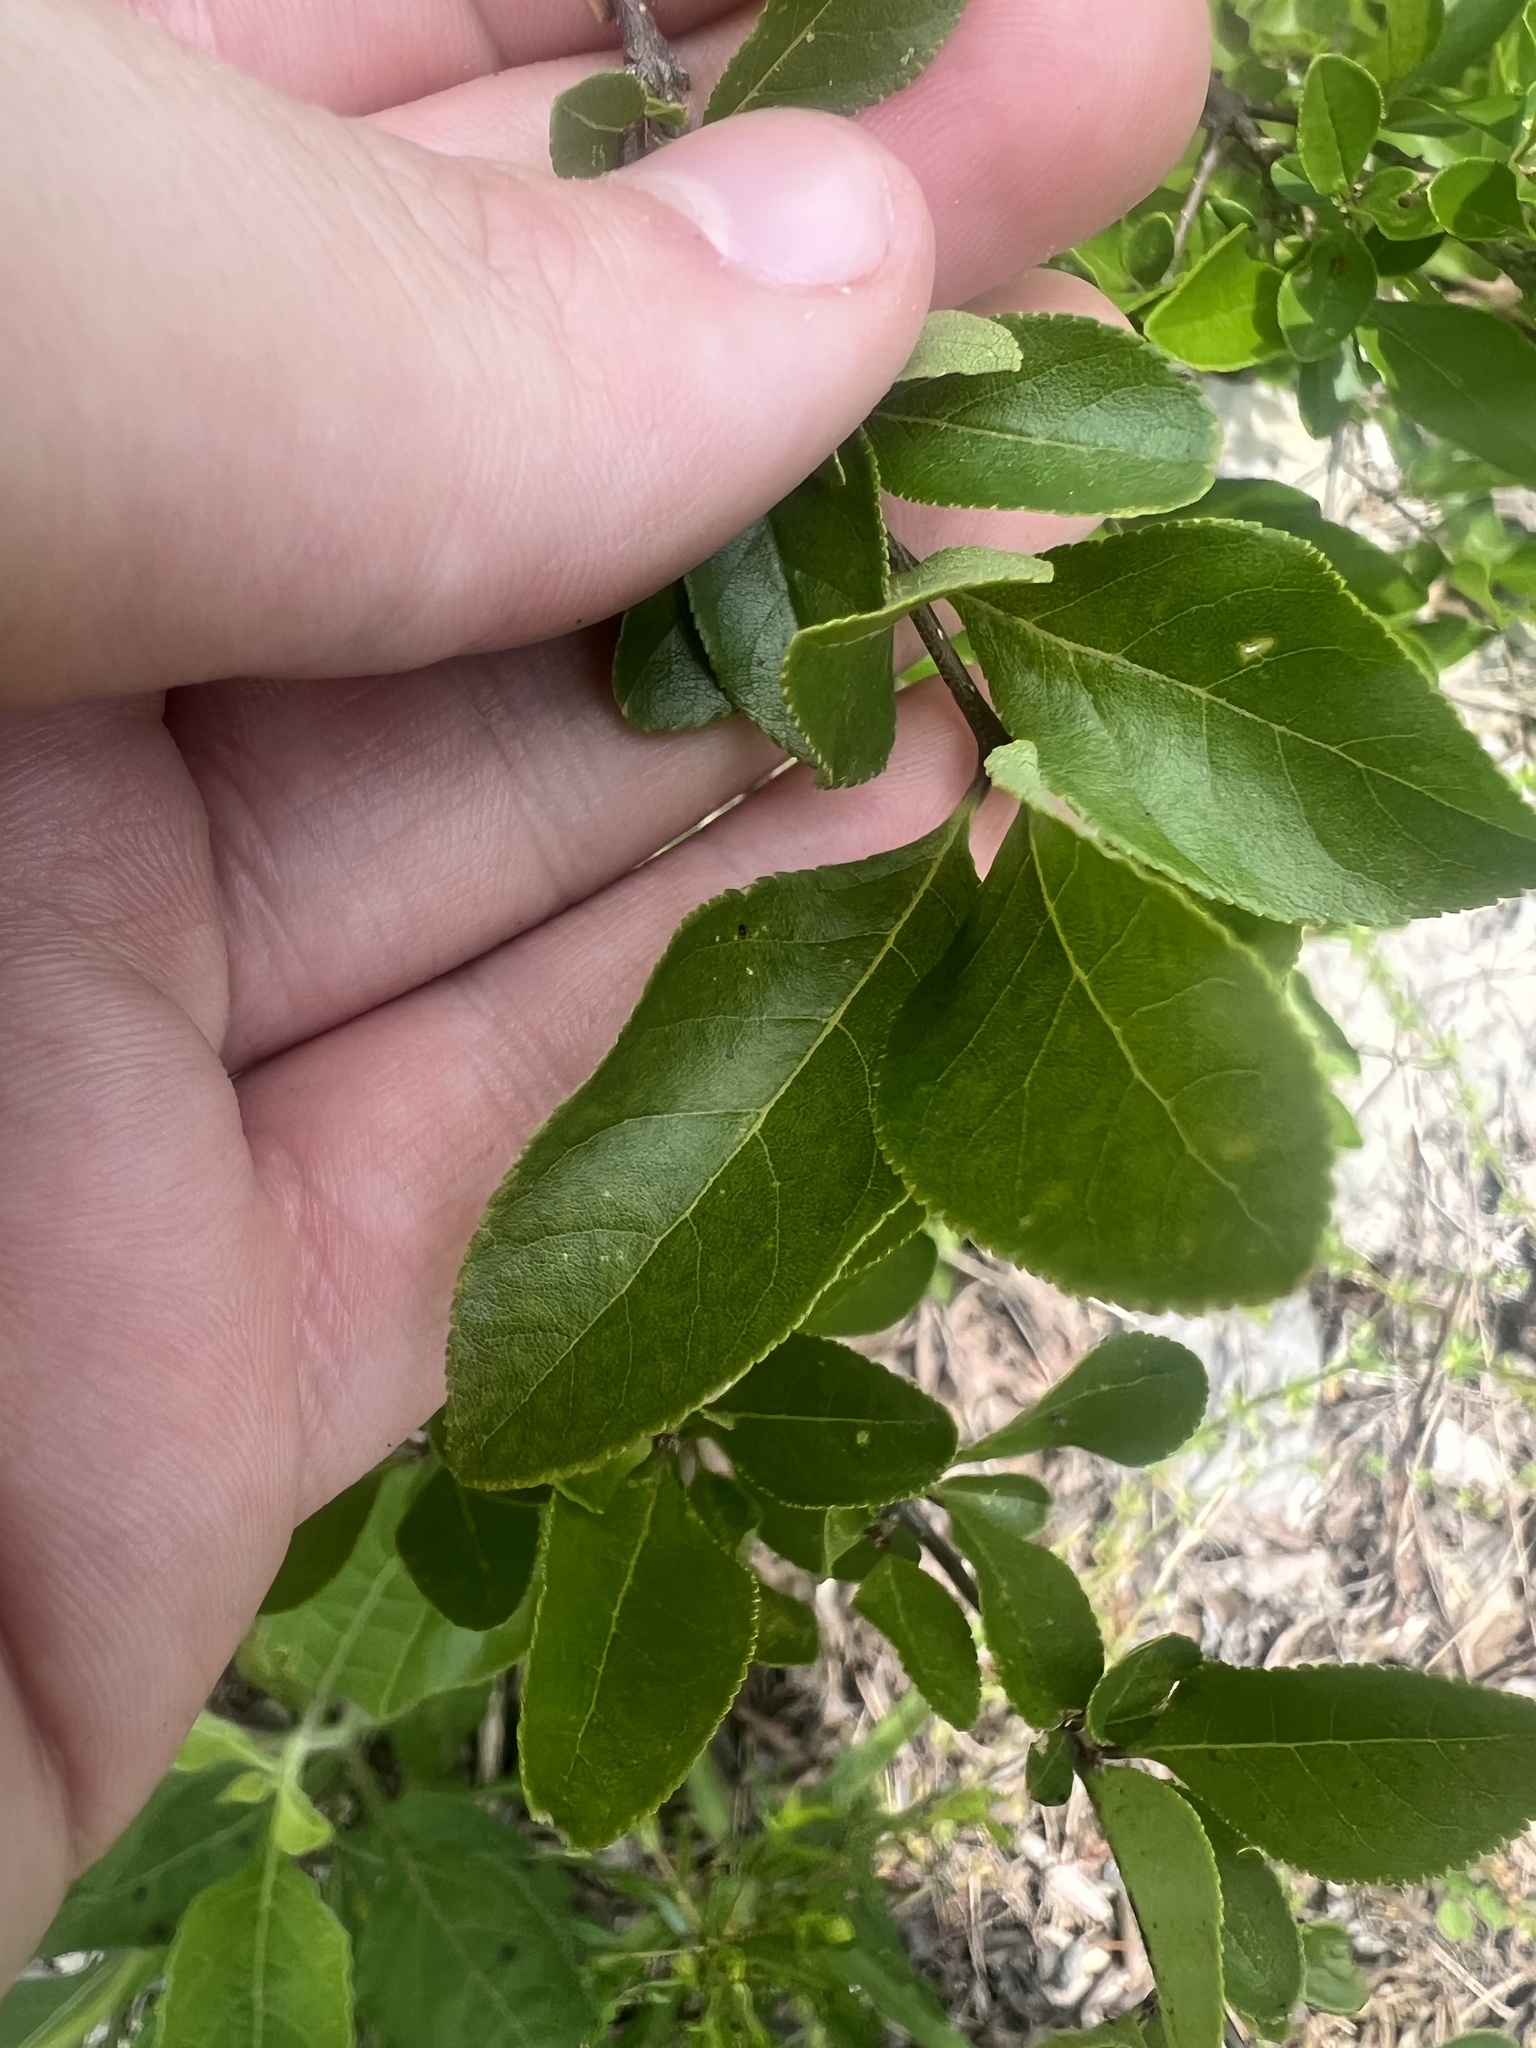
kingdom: Plantae
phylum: Tracheophyta
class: Magnoliopsida
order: Lamiales
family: Oleaceae
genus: Forestiera
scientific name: Forestiera ligustrina
